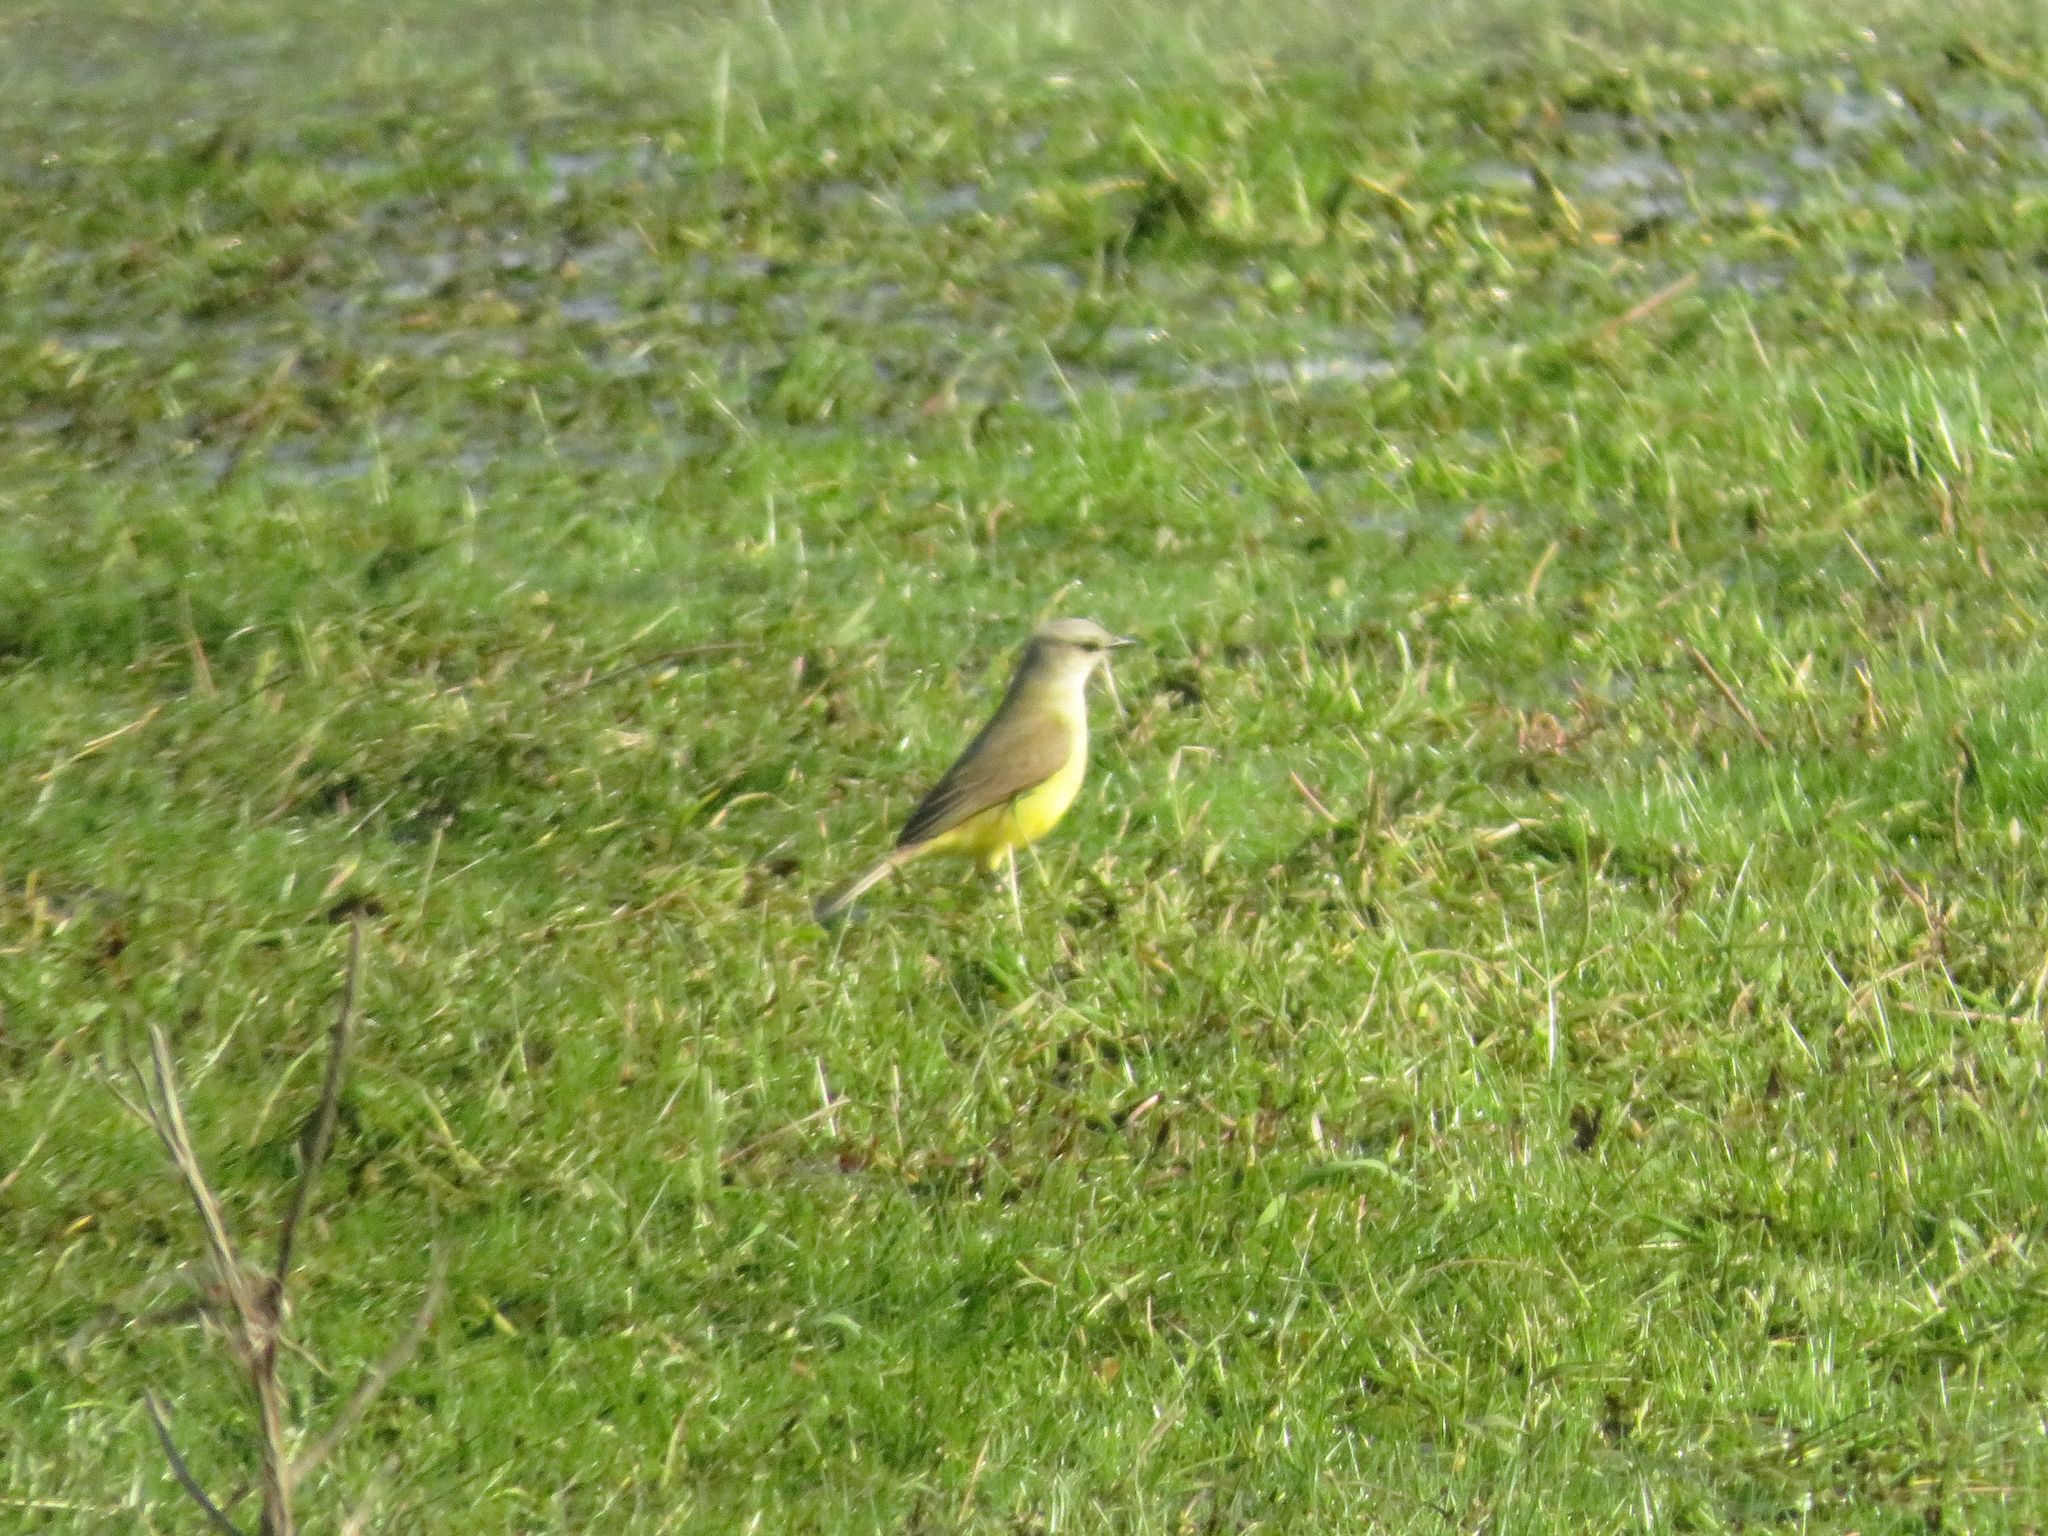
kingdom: Animalia
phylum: Chordata
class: Aves
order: Passeriformes
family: Tyrannidae
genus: Machetornis
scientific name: Machetornis rixosa
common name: Cattle tyrant
